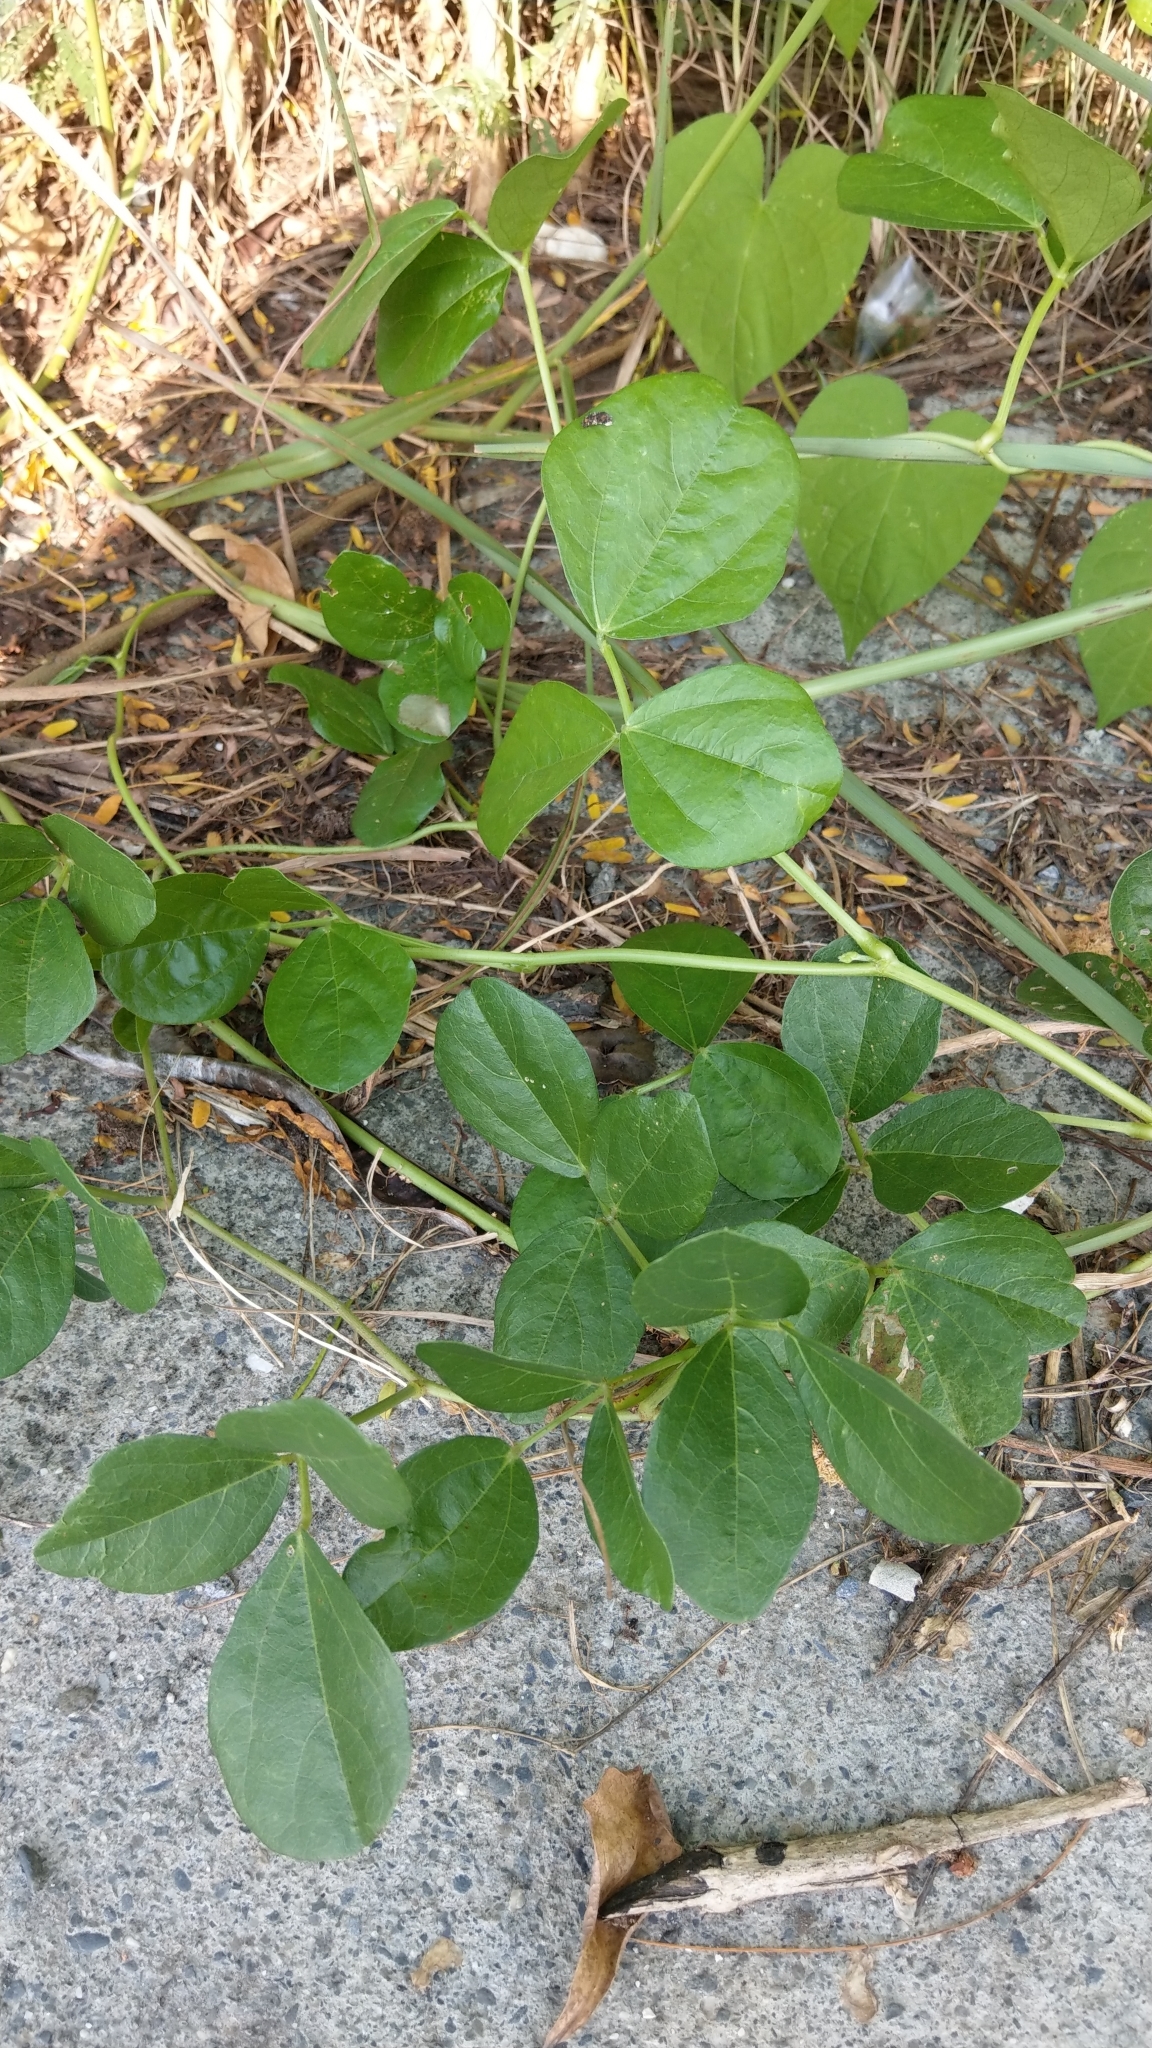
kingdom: Plantae
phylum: Tracheophyta
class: Magnoliopsida
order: Fabales
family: Fabaceae
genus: Vigna
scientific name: Vigna marina
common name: Dune-bean
